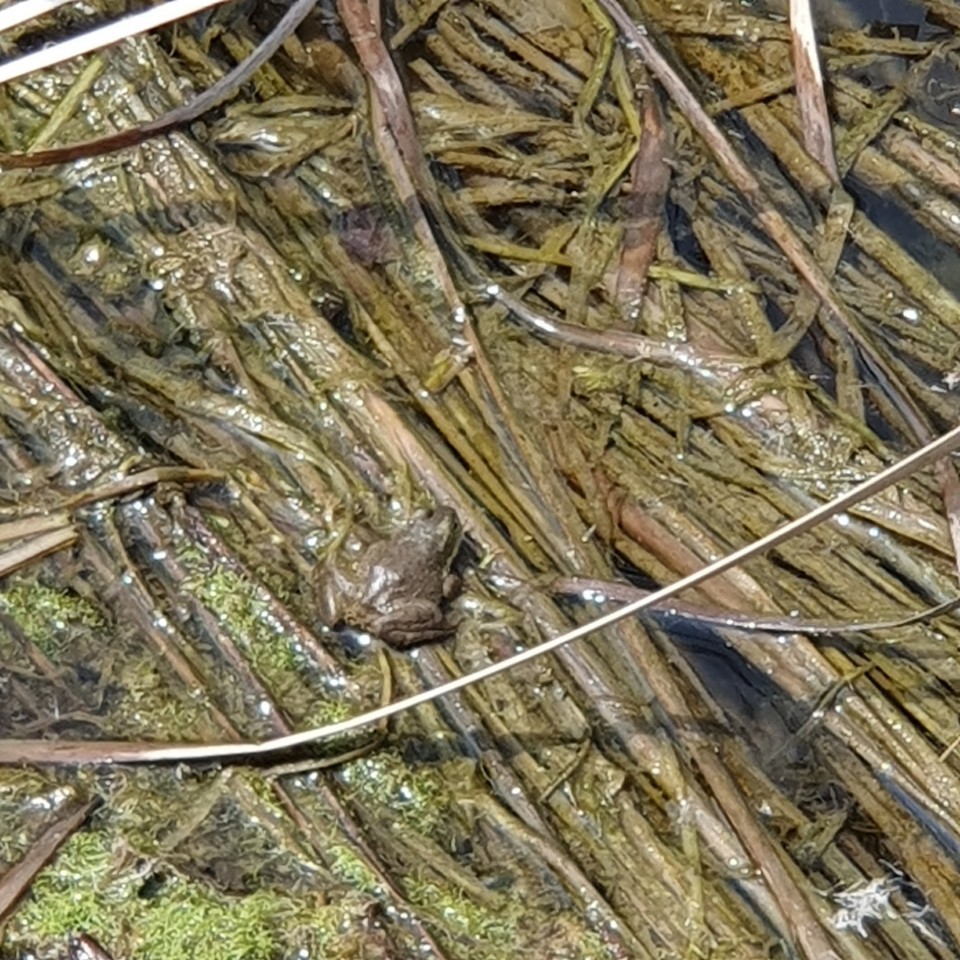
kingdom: Animalia
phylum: Chordata
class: Amphibia
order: Anura
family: Ranidae
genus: Lithobates
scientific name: Lithobates catesbeianus
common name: American bullfrog
